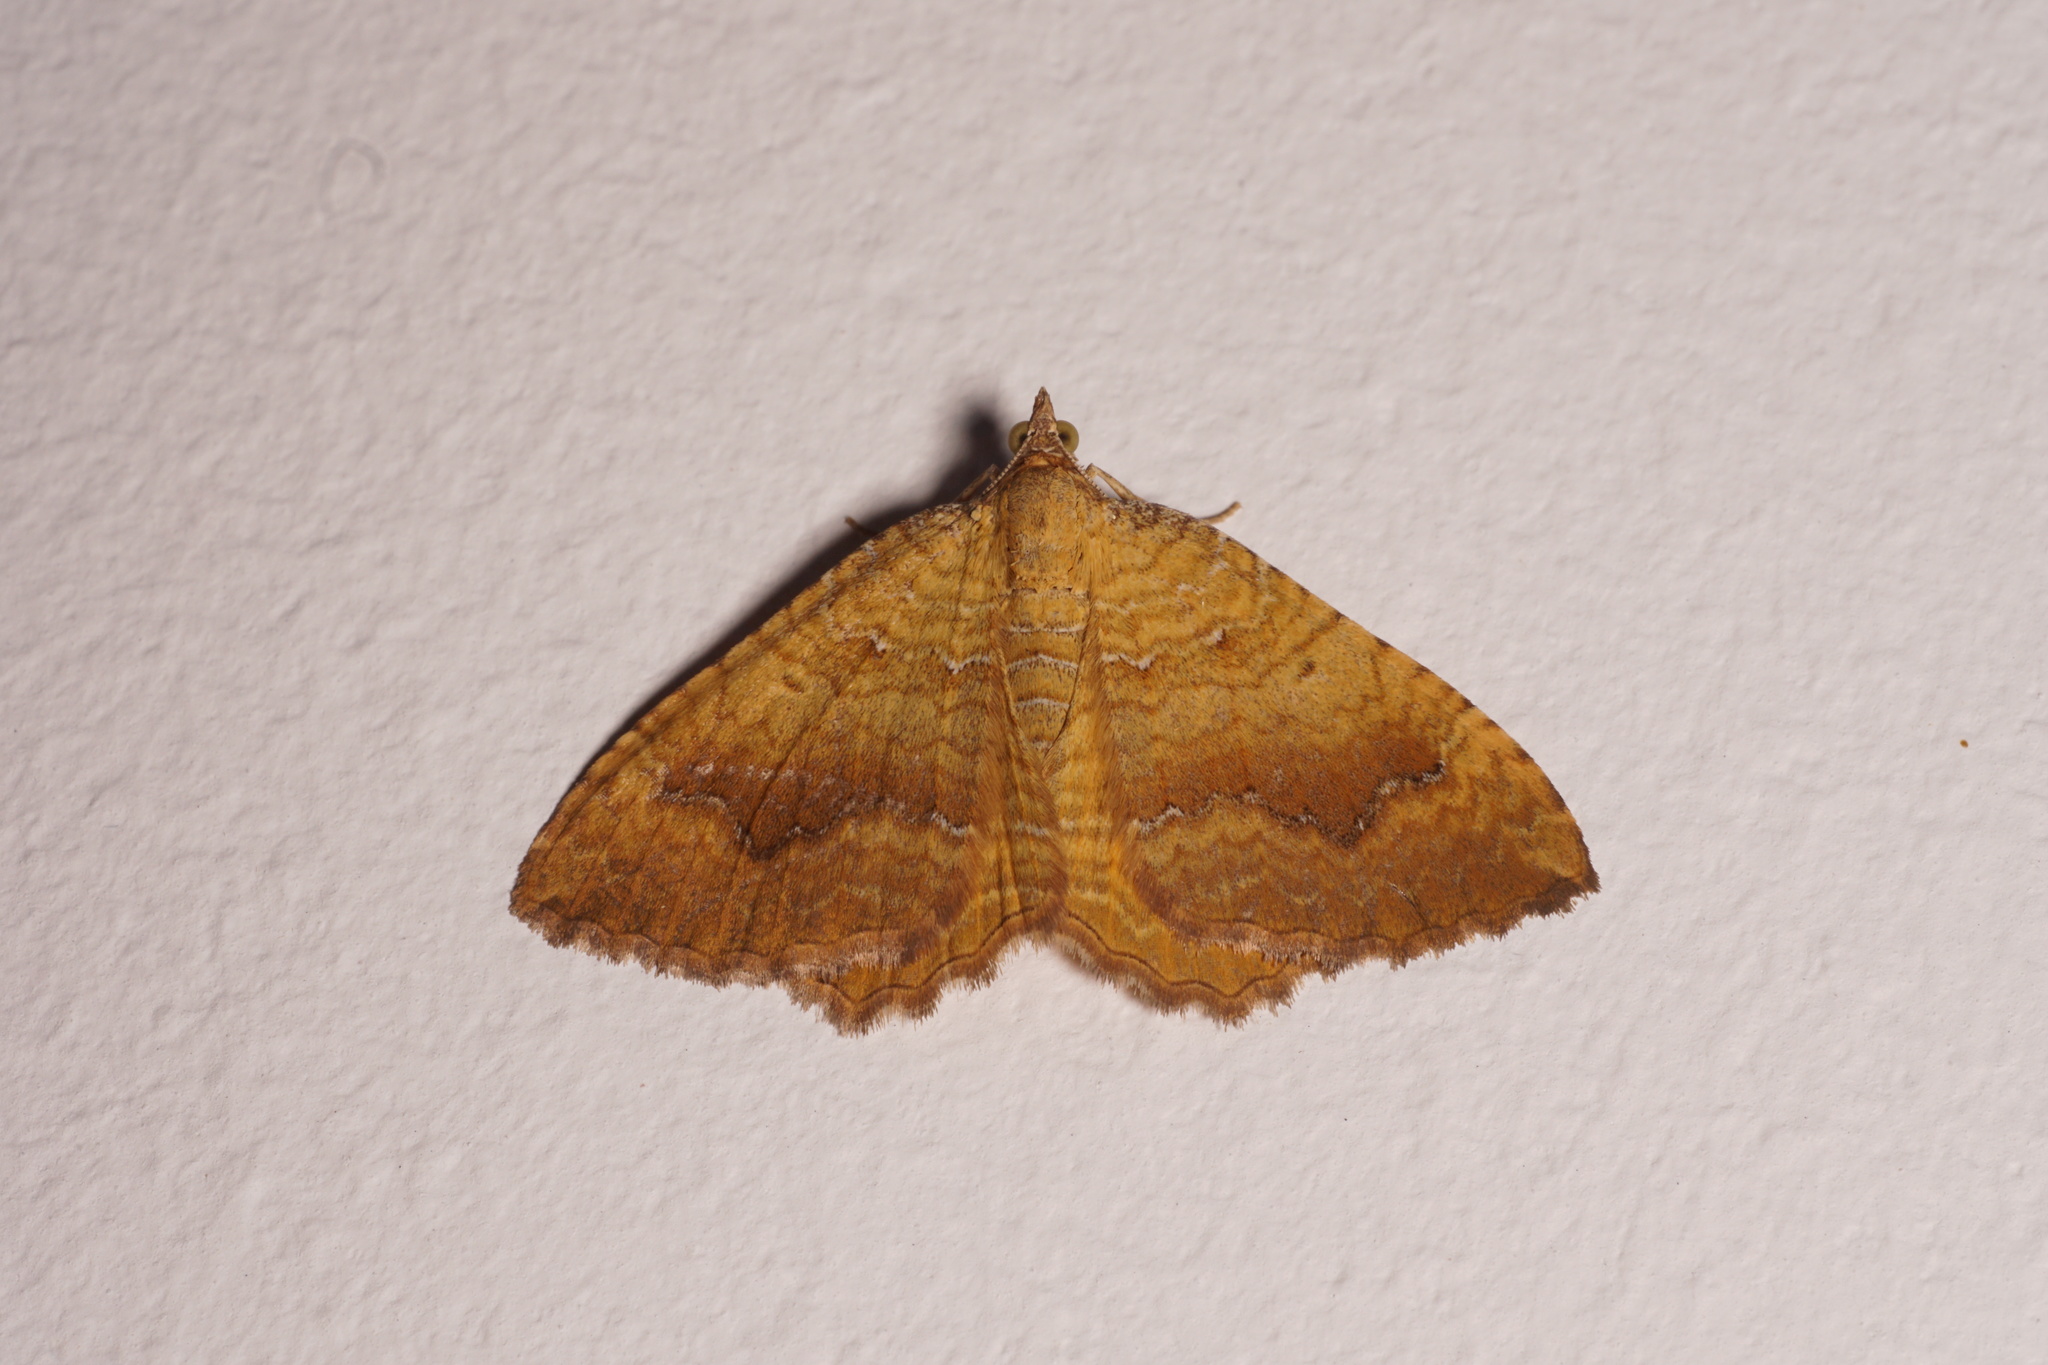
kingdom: Animalia
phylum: Arthropoda
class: Insecta
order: Lepidoptera
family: Geometridae
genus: Camptogramma
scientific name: Camptogramma bilineata
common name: Yellow shell
